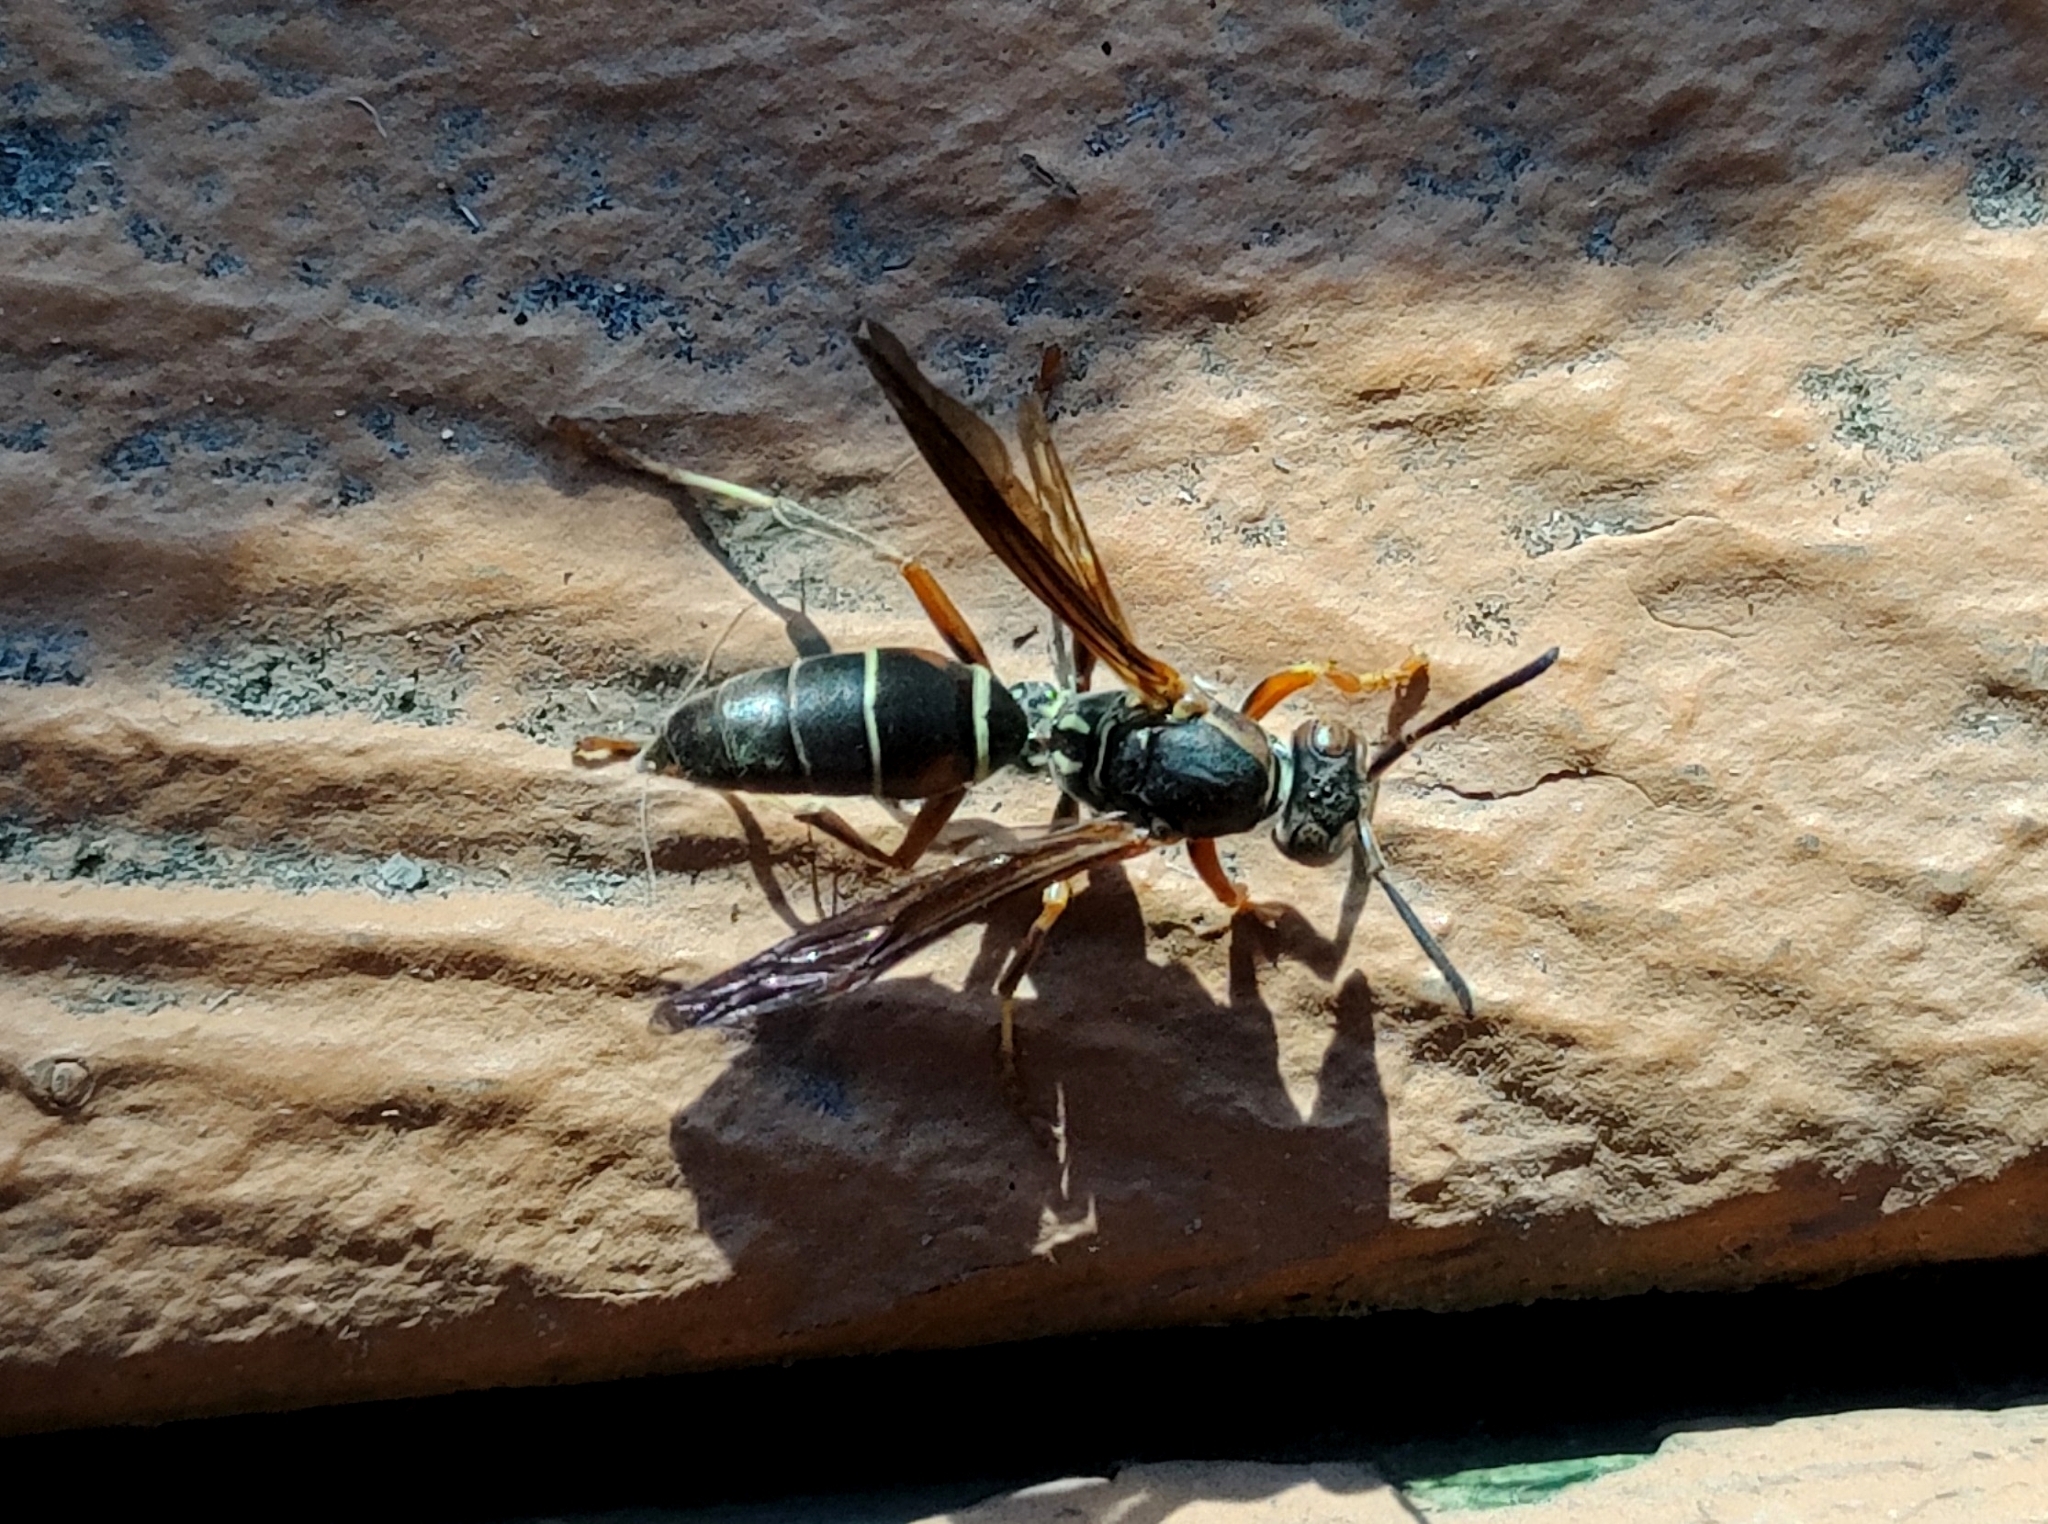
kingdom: Animalia
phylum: Arthropoda
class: Insecta
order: Hymenoptera
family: Eumenidae
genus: Polistes
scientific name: Polistes fuscatus
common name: Dark paper wasp
